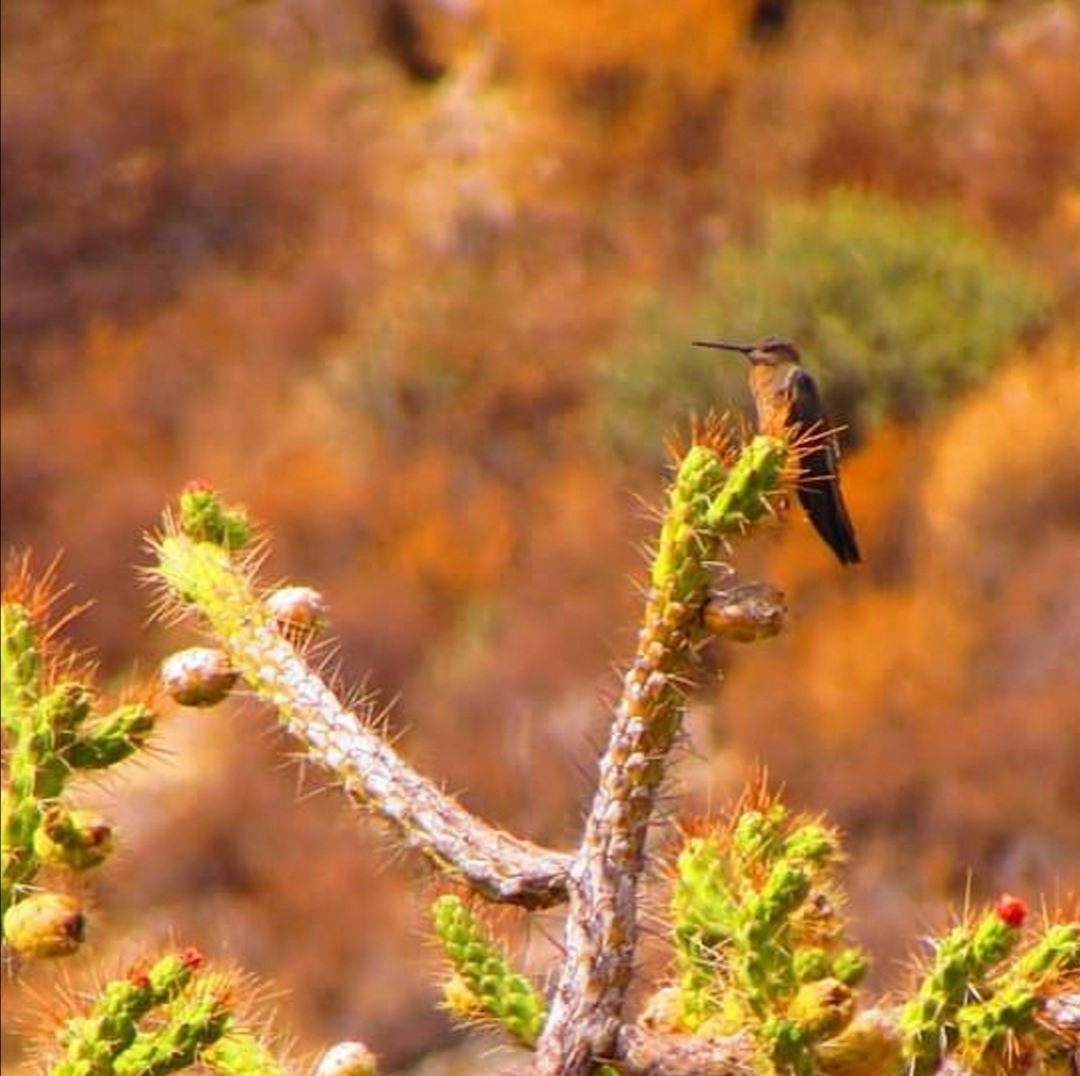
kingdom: Animalia
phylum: Chordata
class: Aves
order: Apodiformes
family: Trochilidae
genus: Patagona
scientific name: Patagona gigas
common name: Giant hummingbird
